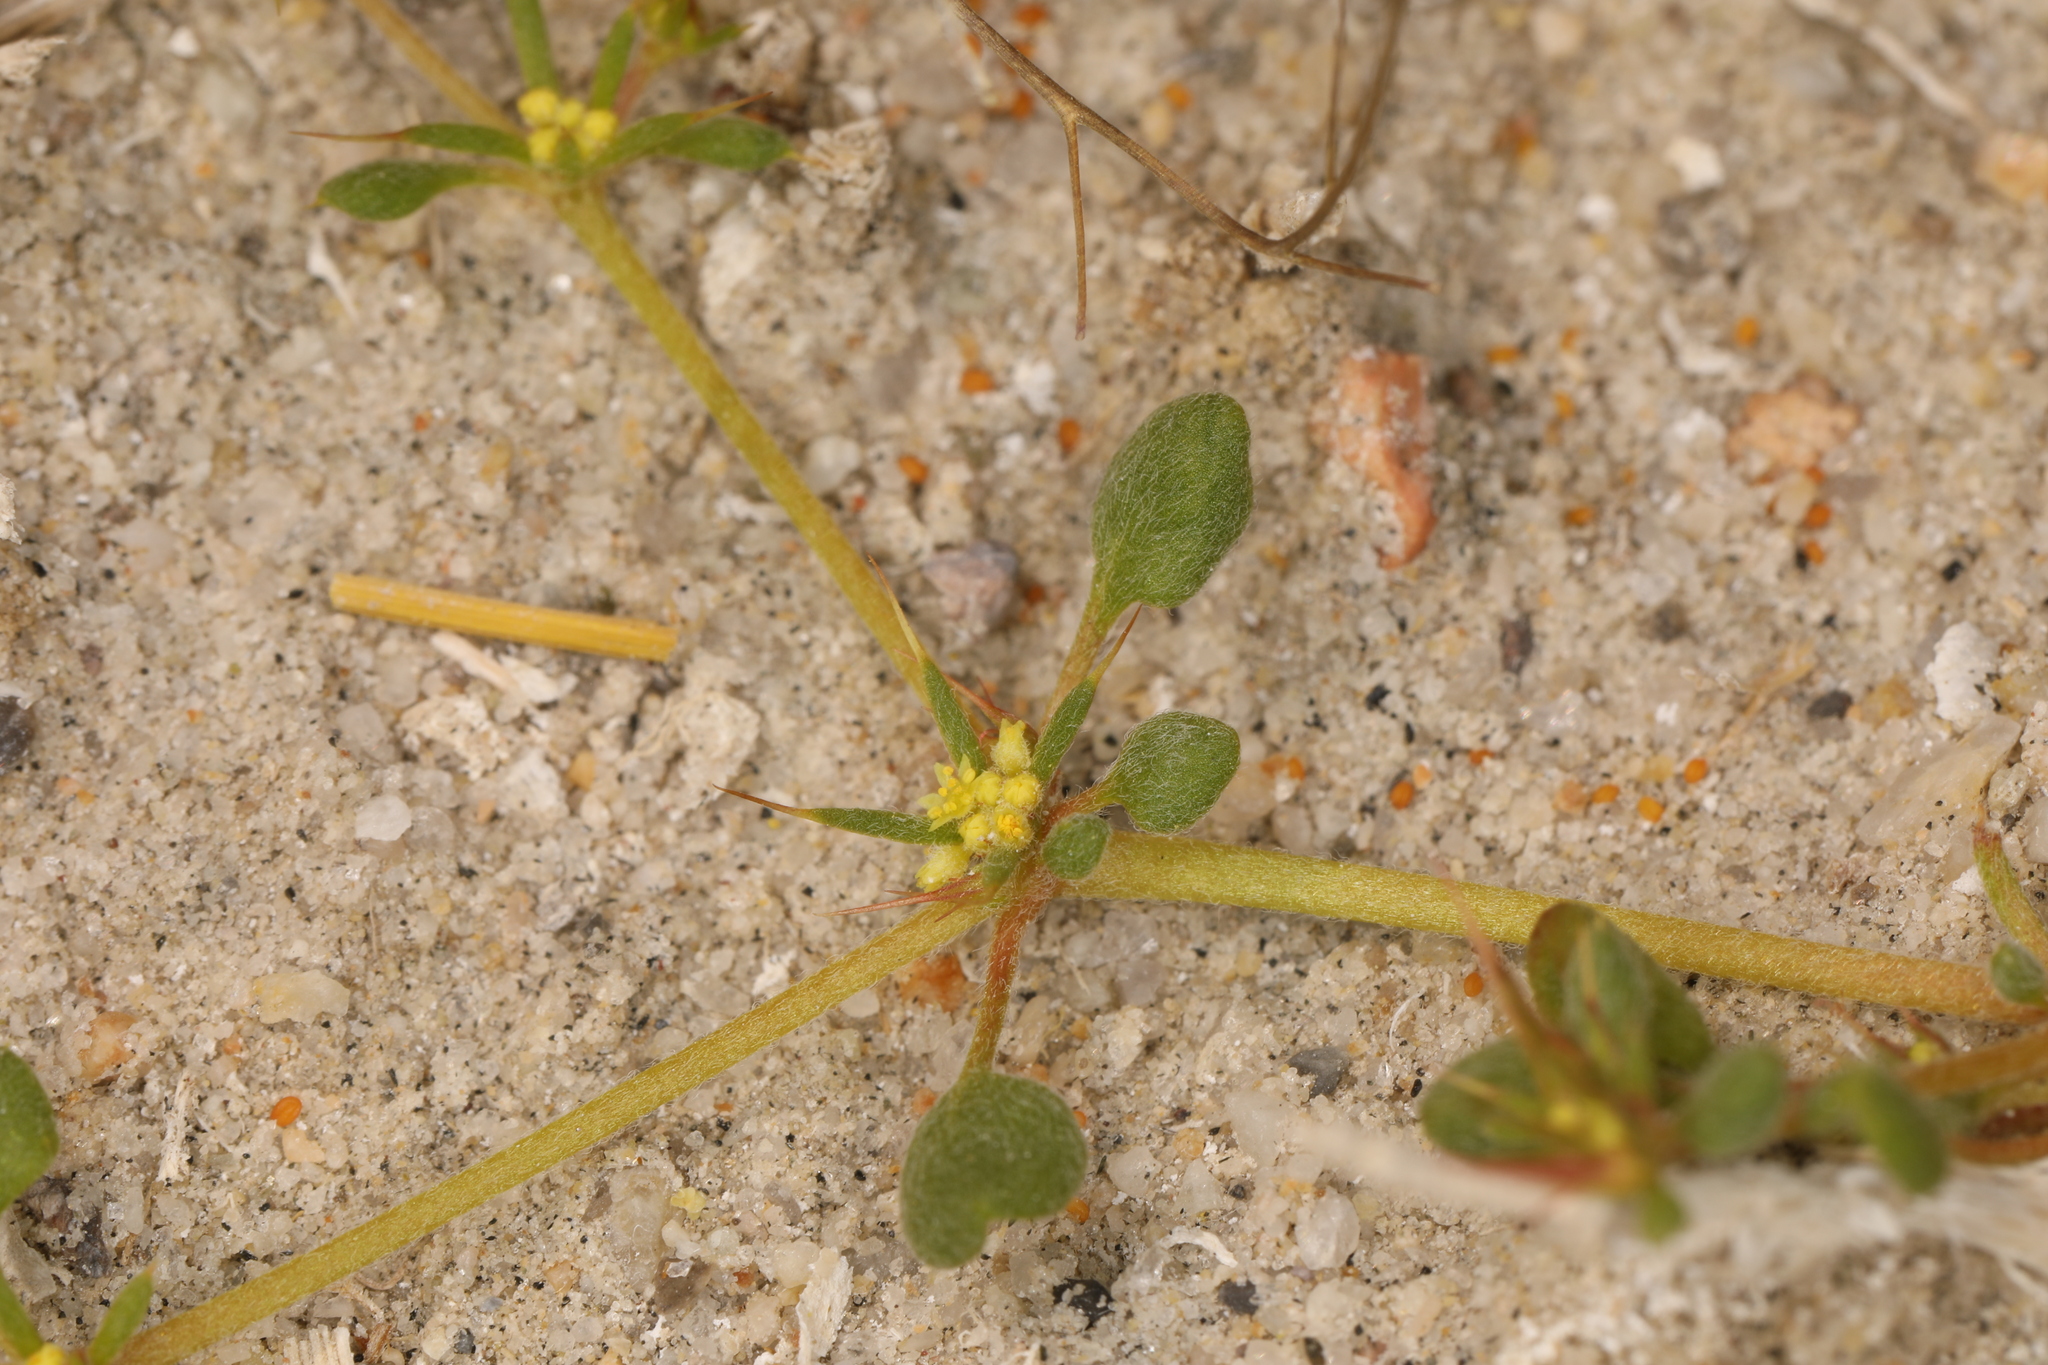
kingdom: Plantae
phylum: Tracheophyta
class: Magnoliopsida
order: Caryophyllales
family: Polygonaceae
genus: Goodmania
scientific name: Goodmania luteola
